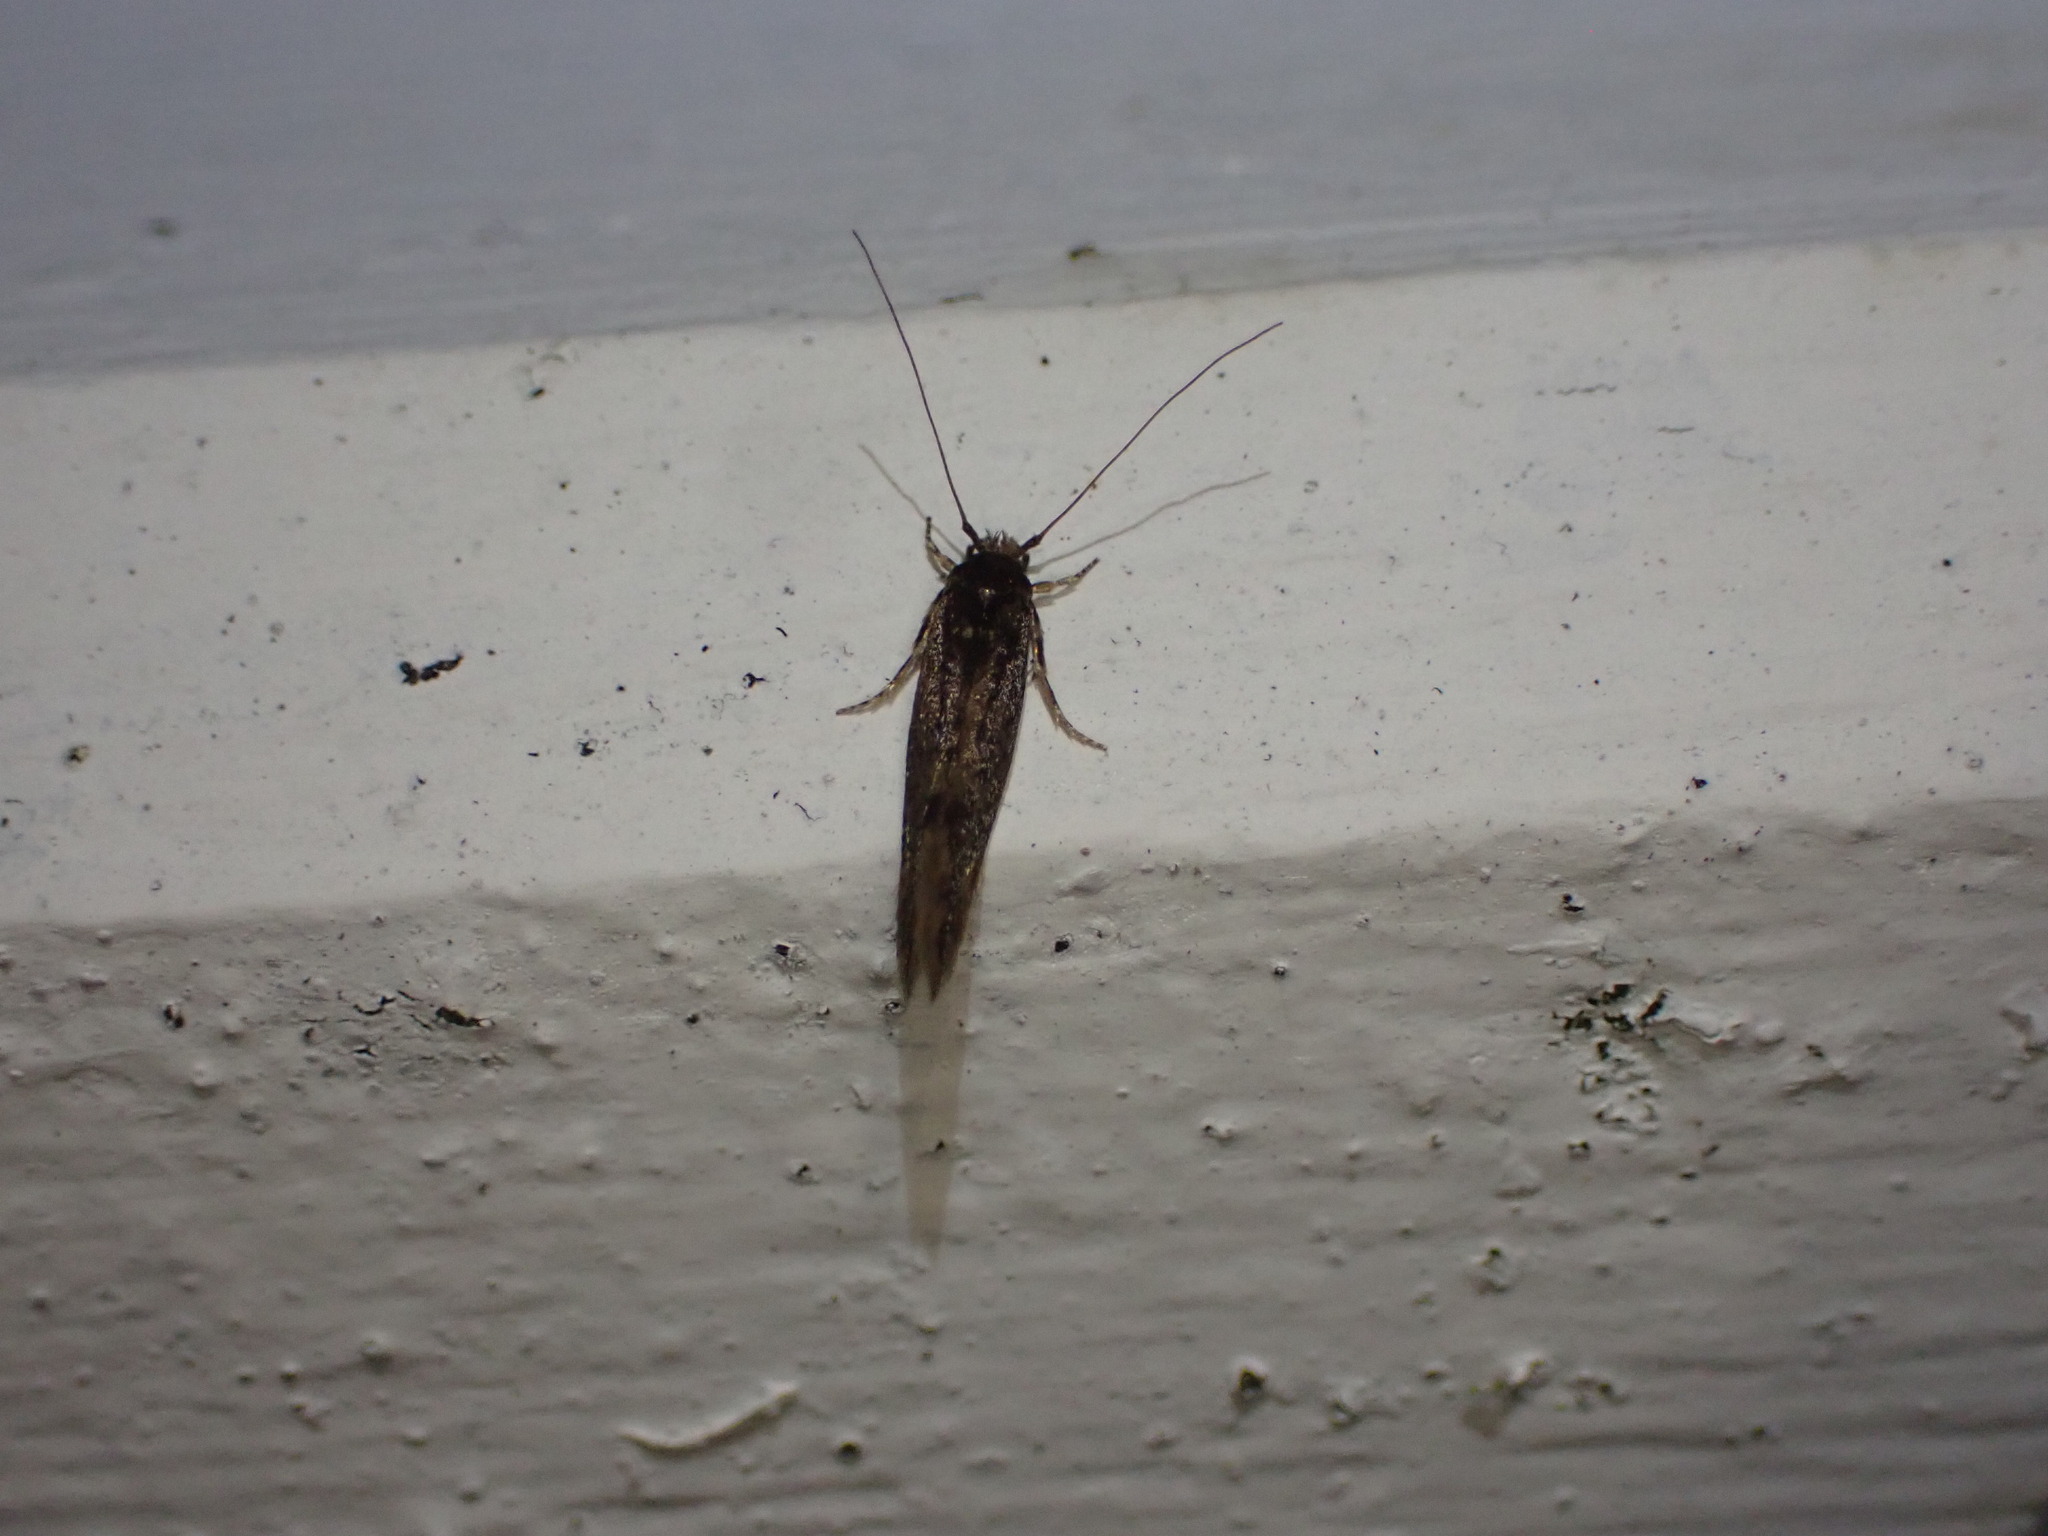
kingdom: Animalia
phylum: Arthropoda
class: Insecta
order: Lepidoptera
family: Tineidae
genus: Opogona
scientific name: Opogona omoscopa
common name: Moth
